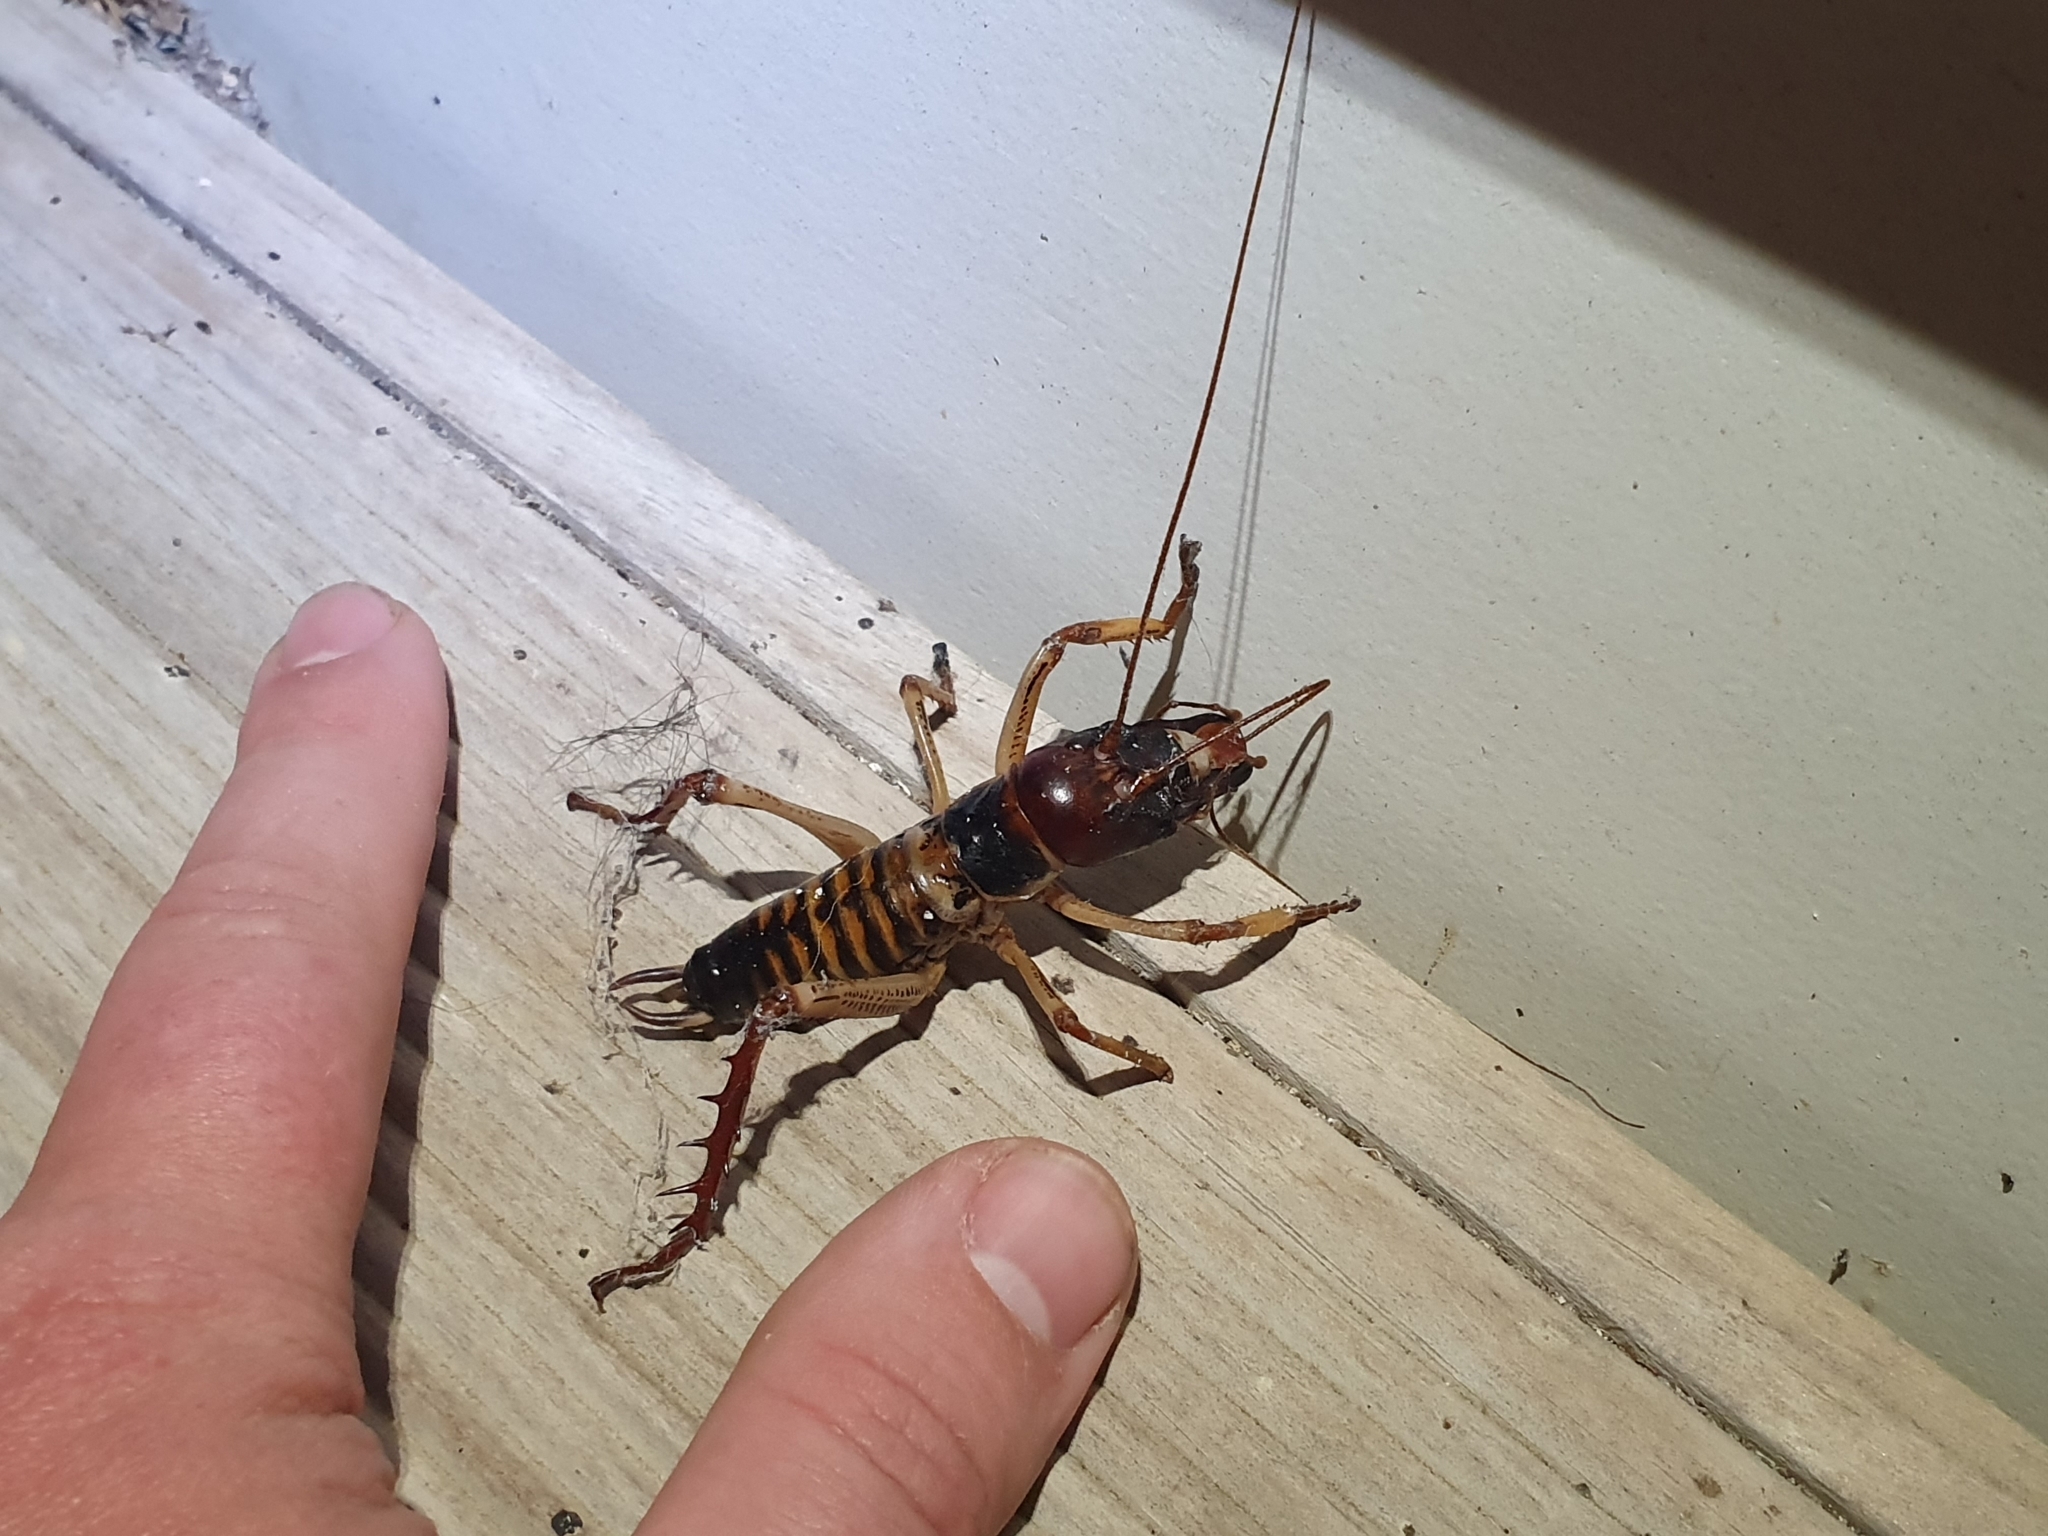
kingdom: Animalia
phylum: Arthropoda
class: Insecta
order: Orthoptera
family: Anostostomatidae
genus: Hemideina
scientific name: Hemideina crassidens
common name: Wellington tree weta
